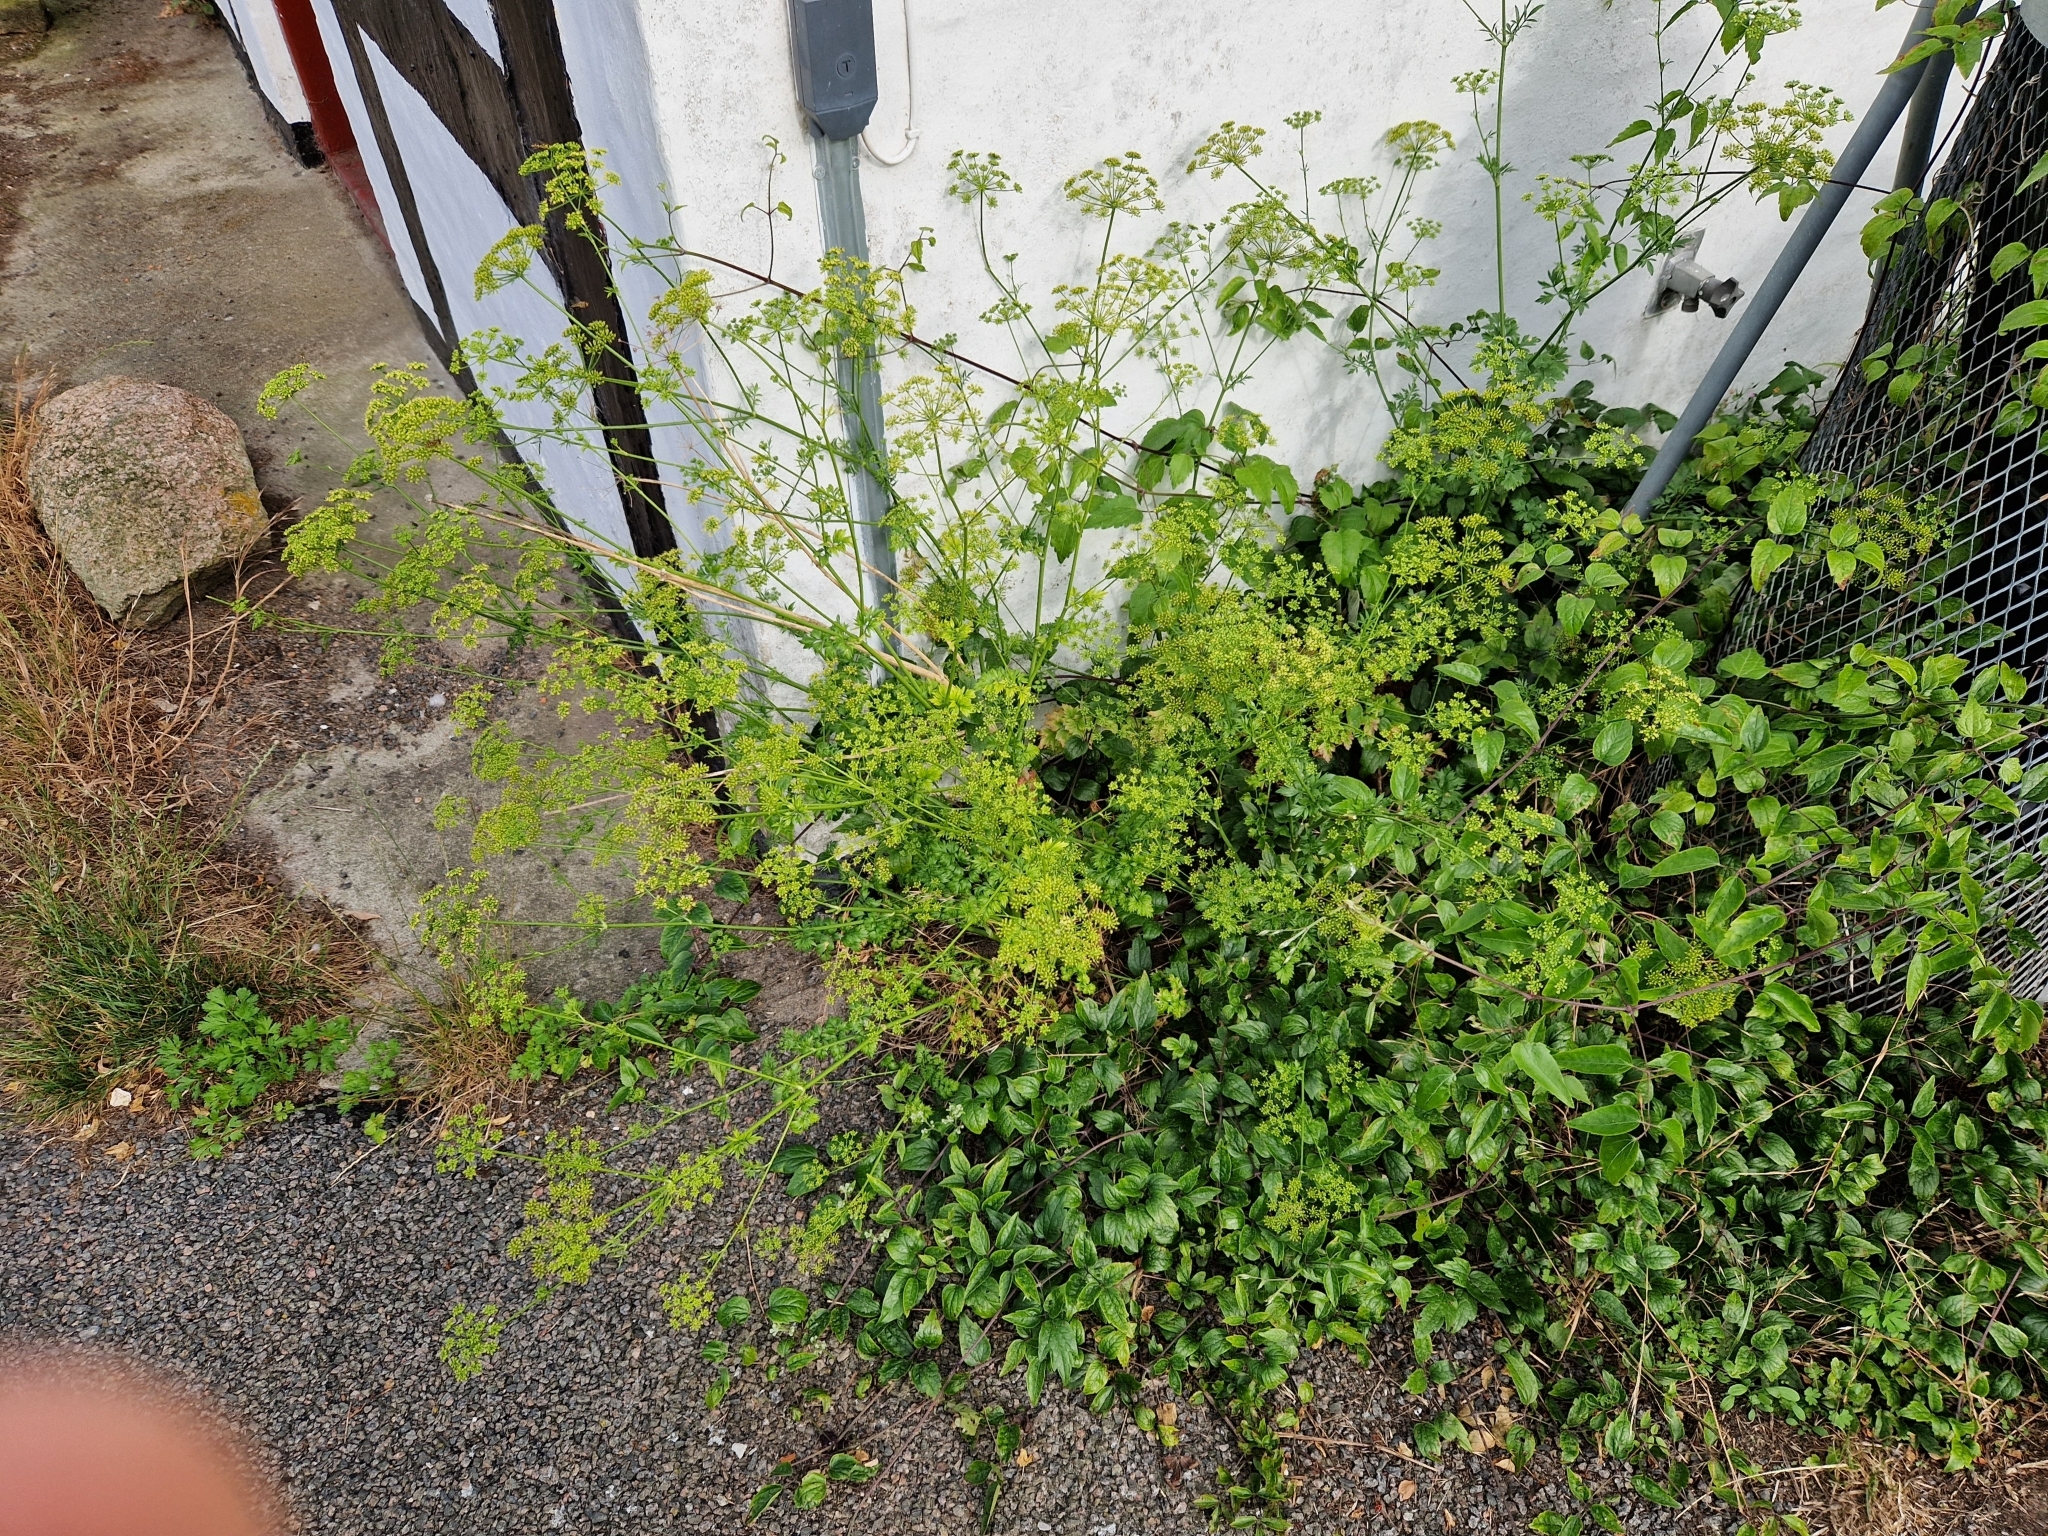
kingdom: Plantae
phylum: Tracheophyta
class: Magnoliopsida
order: Apiales
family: Apiaceae
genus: Petroselinum
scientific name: Petroselinum crispum
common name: Parsley
